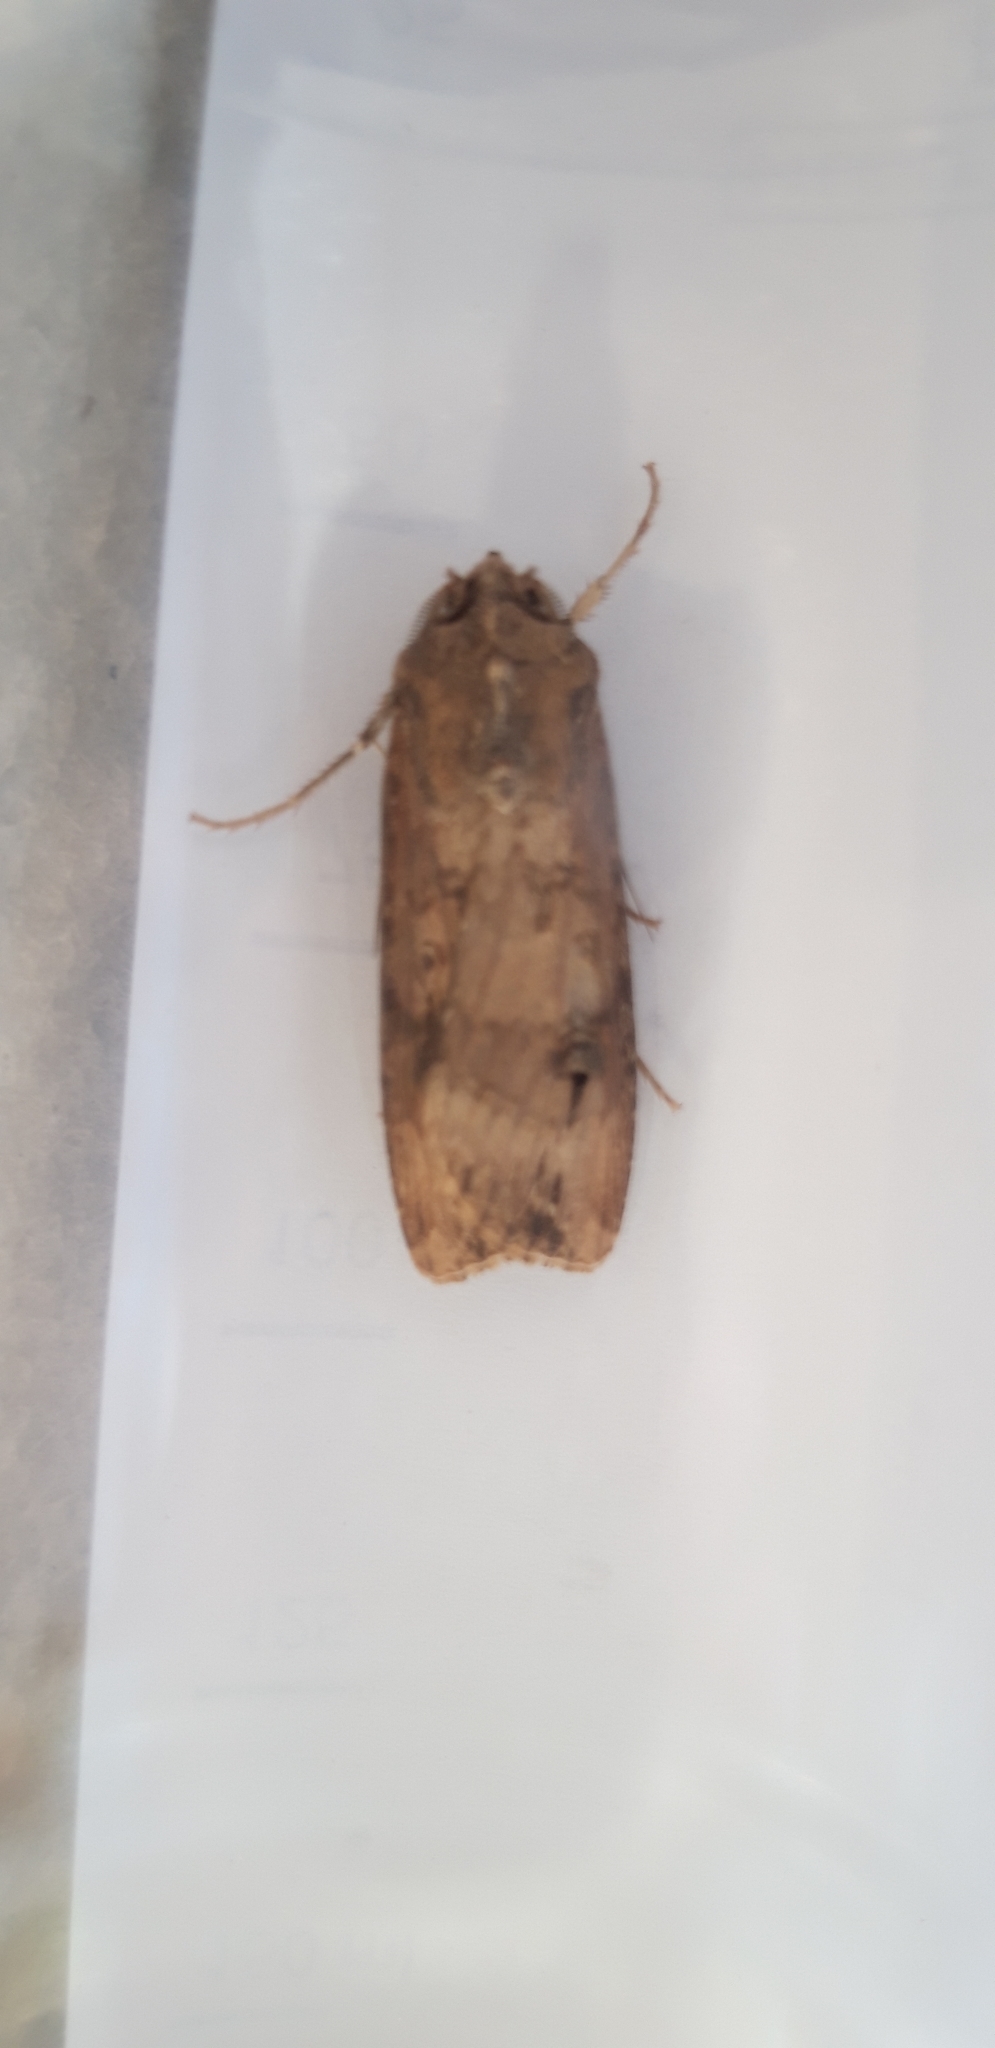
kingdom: Animalia
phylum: Arthropoda
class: Insecta
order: Lepidoptera
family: Noctuidae
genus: Agrotis
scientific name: Agrotis ipsilon
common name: Dark sword-grass
